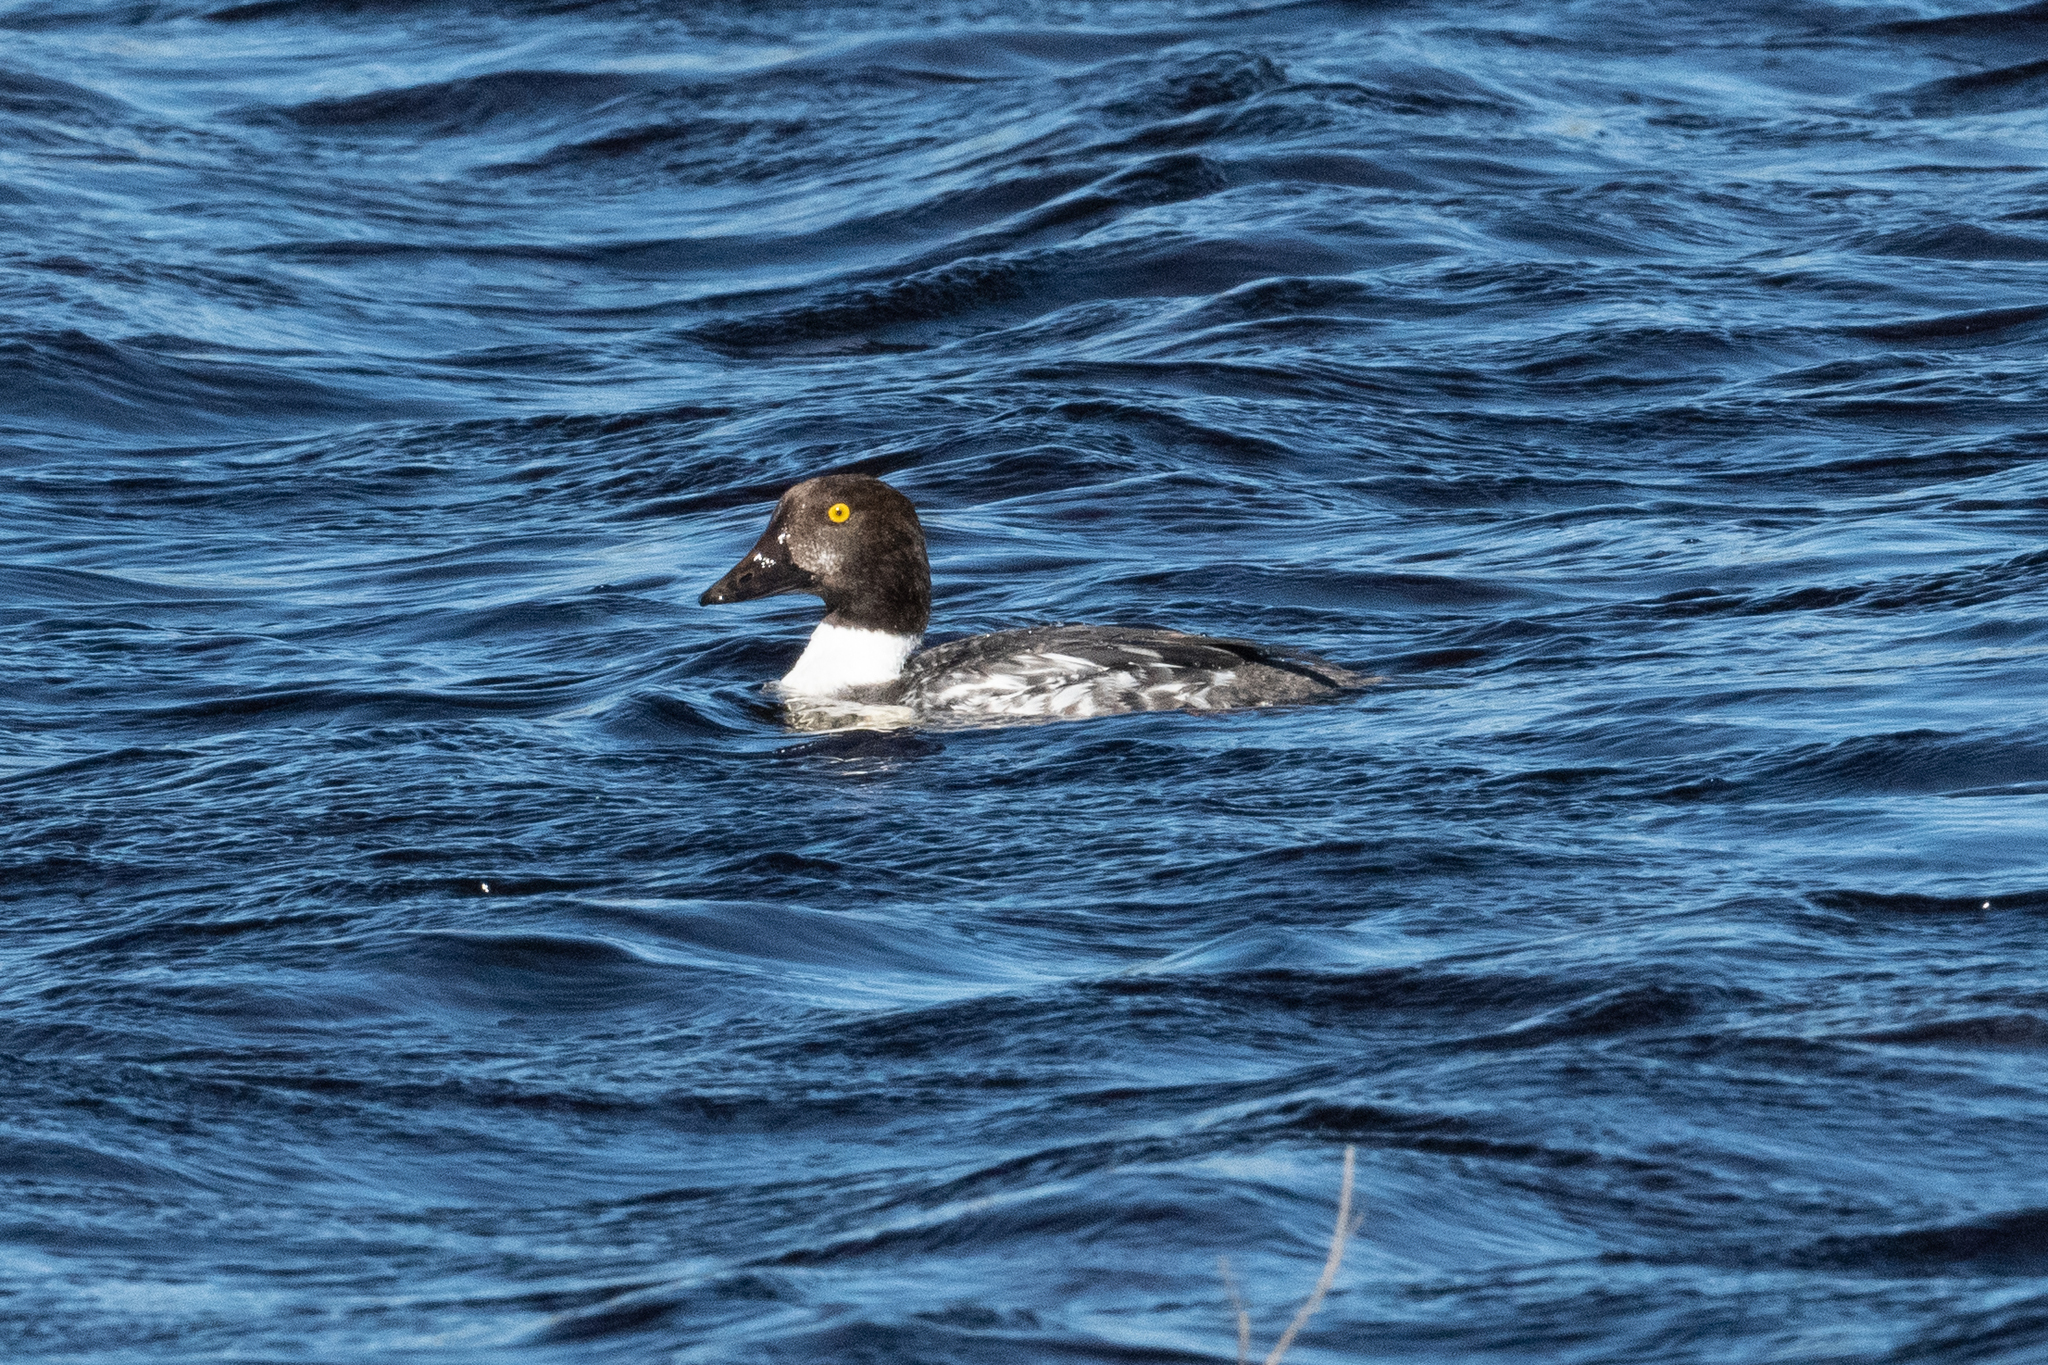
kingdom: Animalia
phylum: Chordata
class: Aves
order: Anseriformes
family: Anatidae
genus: Bucephala
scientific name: Bucephala clangula
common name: Common goldeneye
